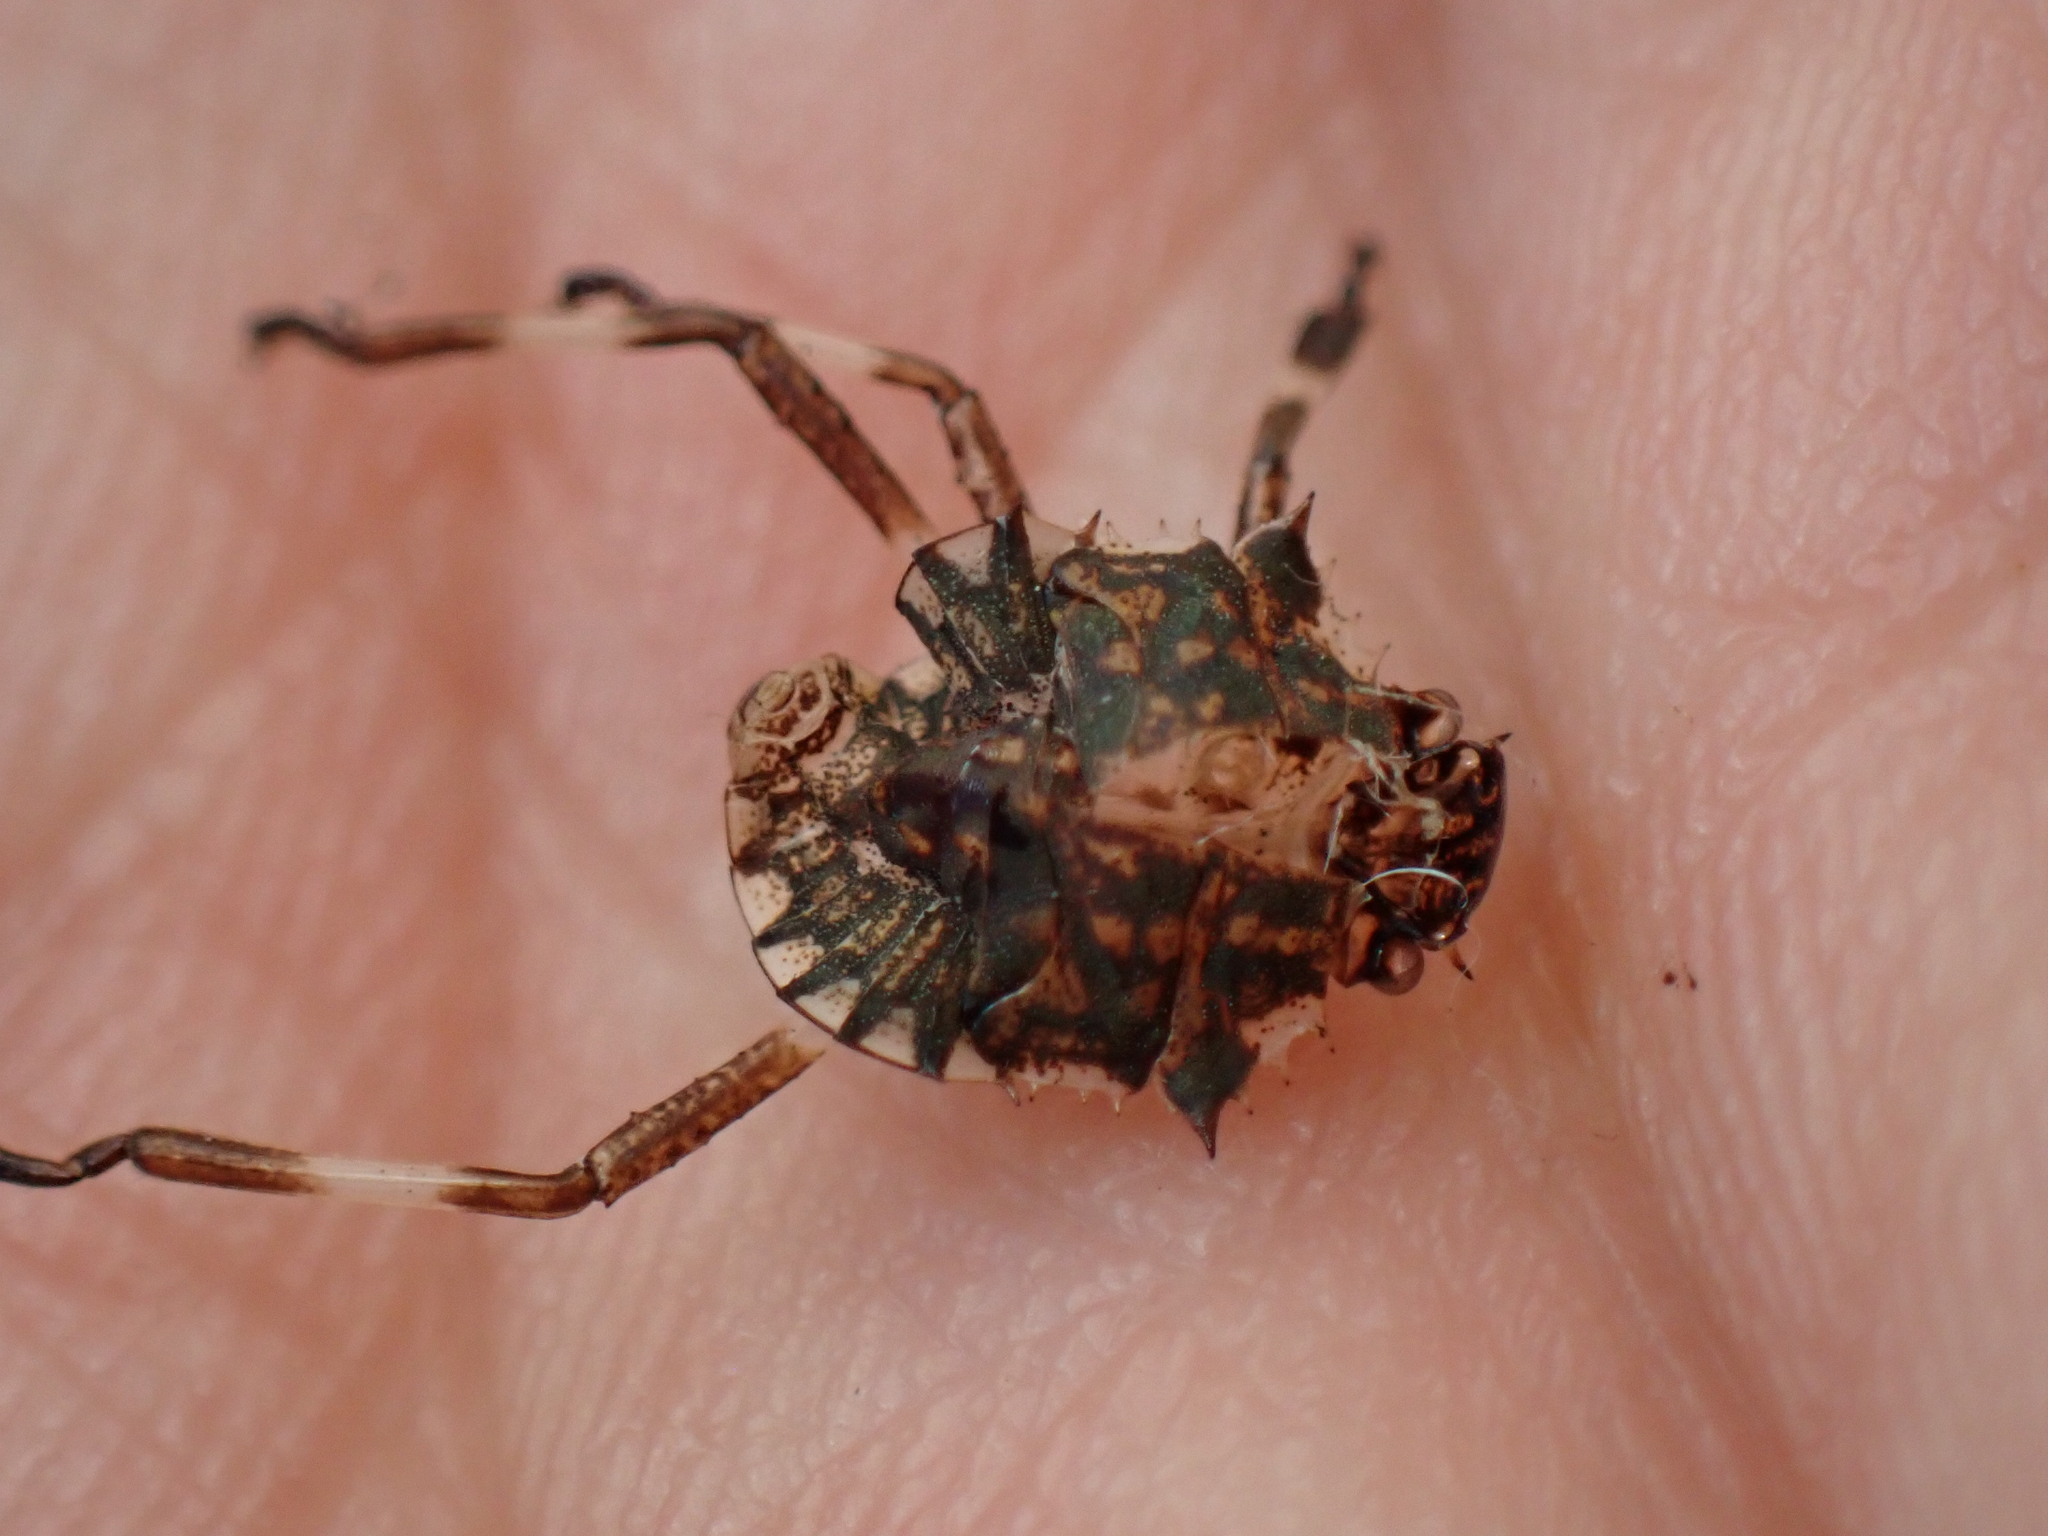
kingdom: Animalia
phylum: Arthropoda
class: Insecta
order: Hemiptera
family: Pentatomidae
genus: Halyomorpha
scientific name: Halyomorpha halys
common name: Brown marmorated stink bug
